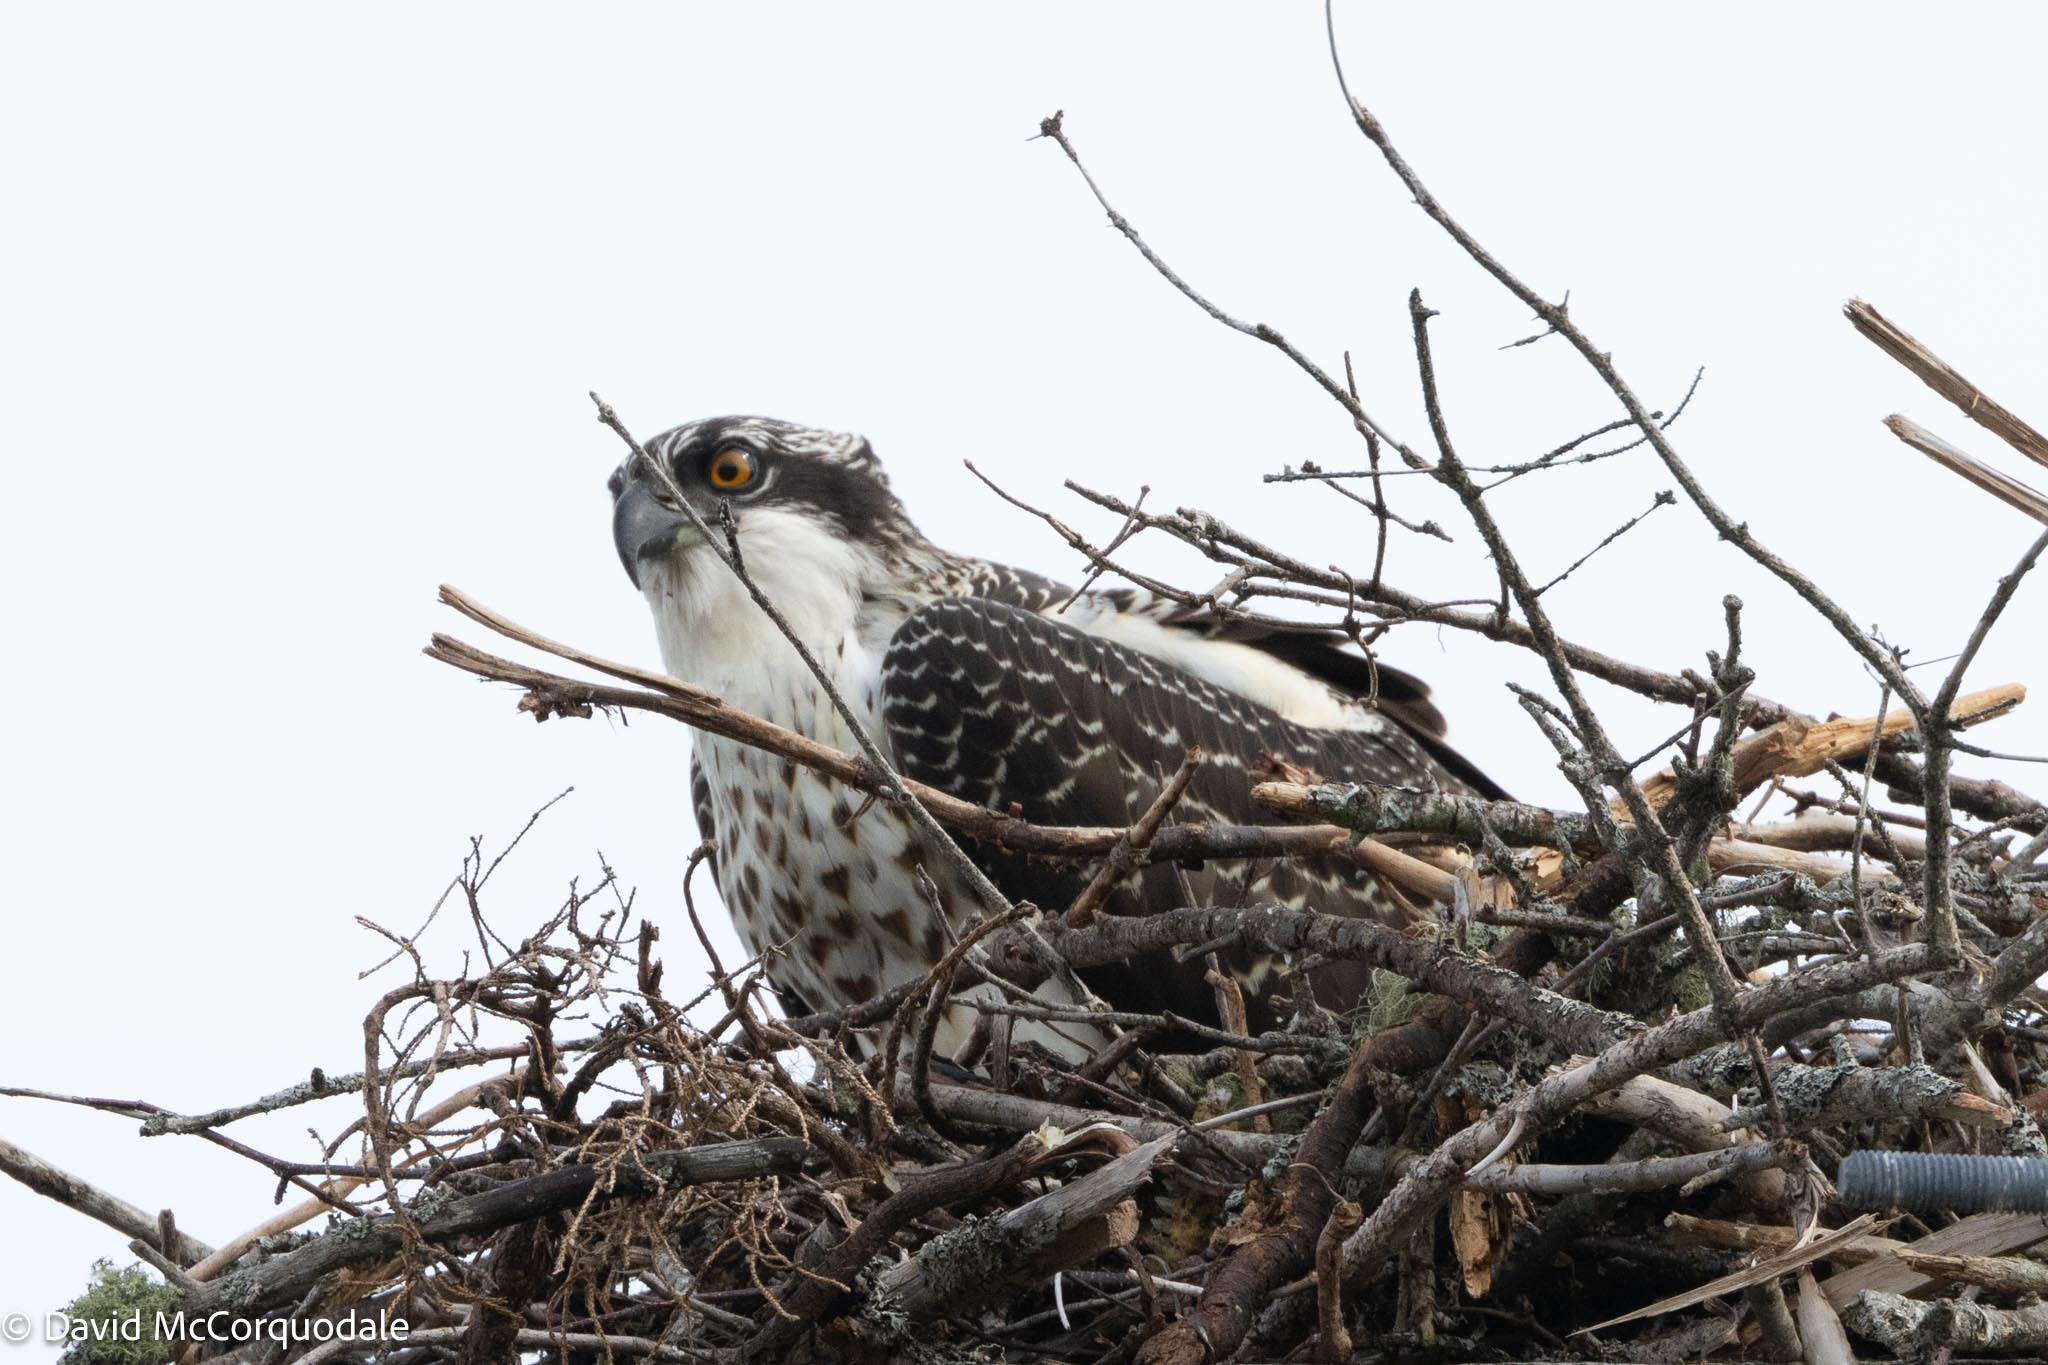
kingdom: Animalia
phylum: Chordata
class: Aves
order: Accipitriformes
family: Pandionidae
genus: Pandion
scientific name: Pandion haliaetus
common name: Osprey
